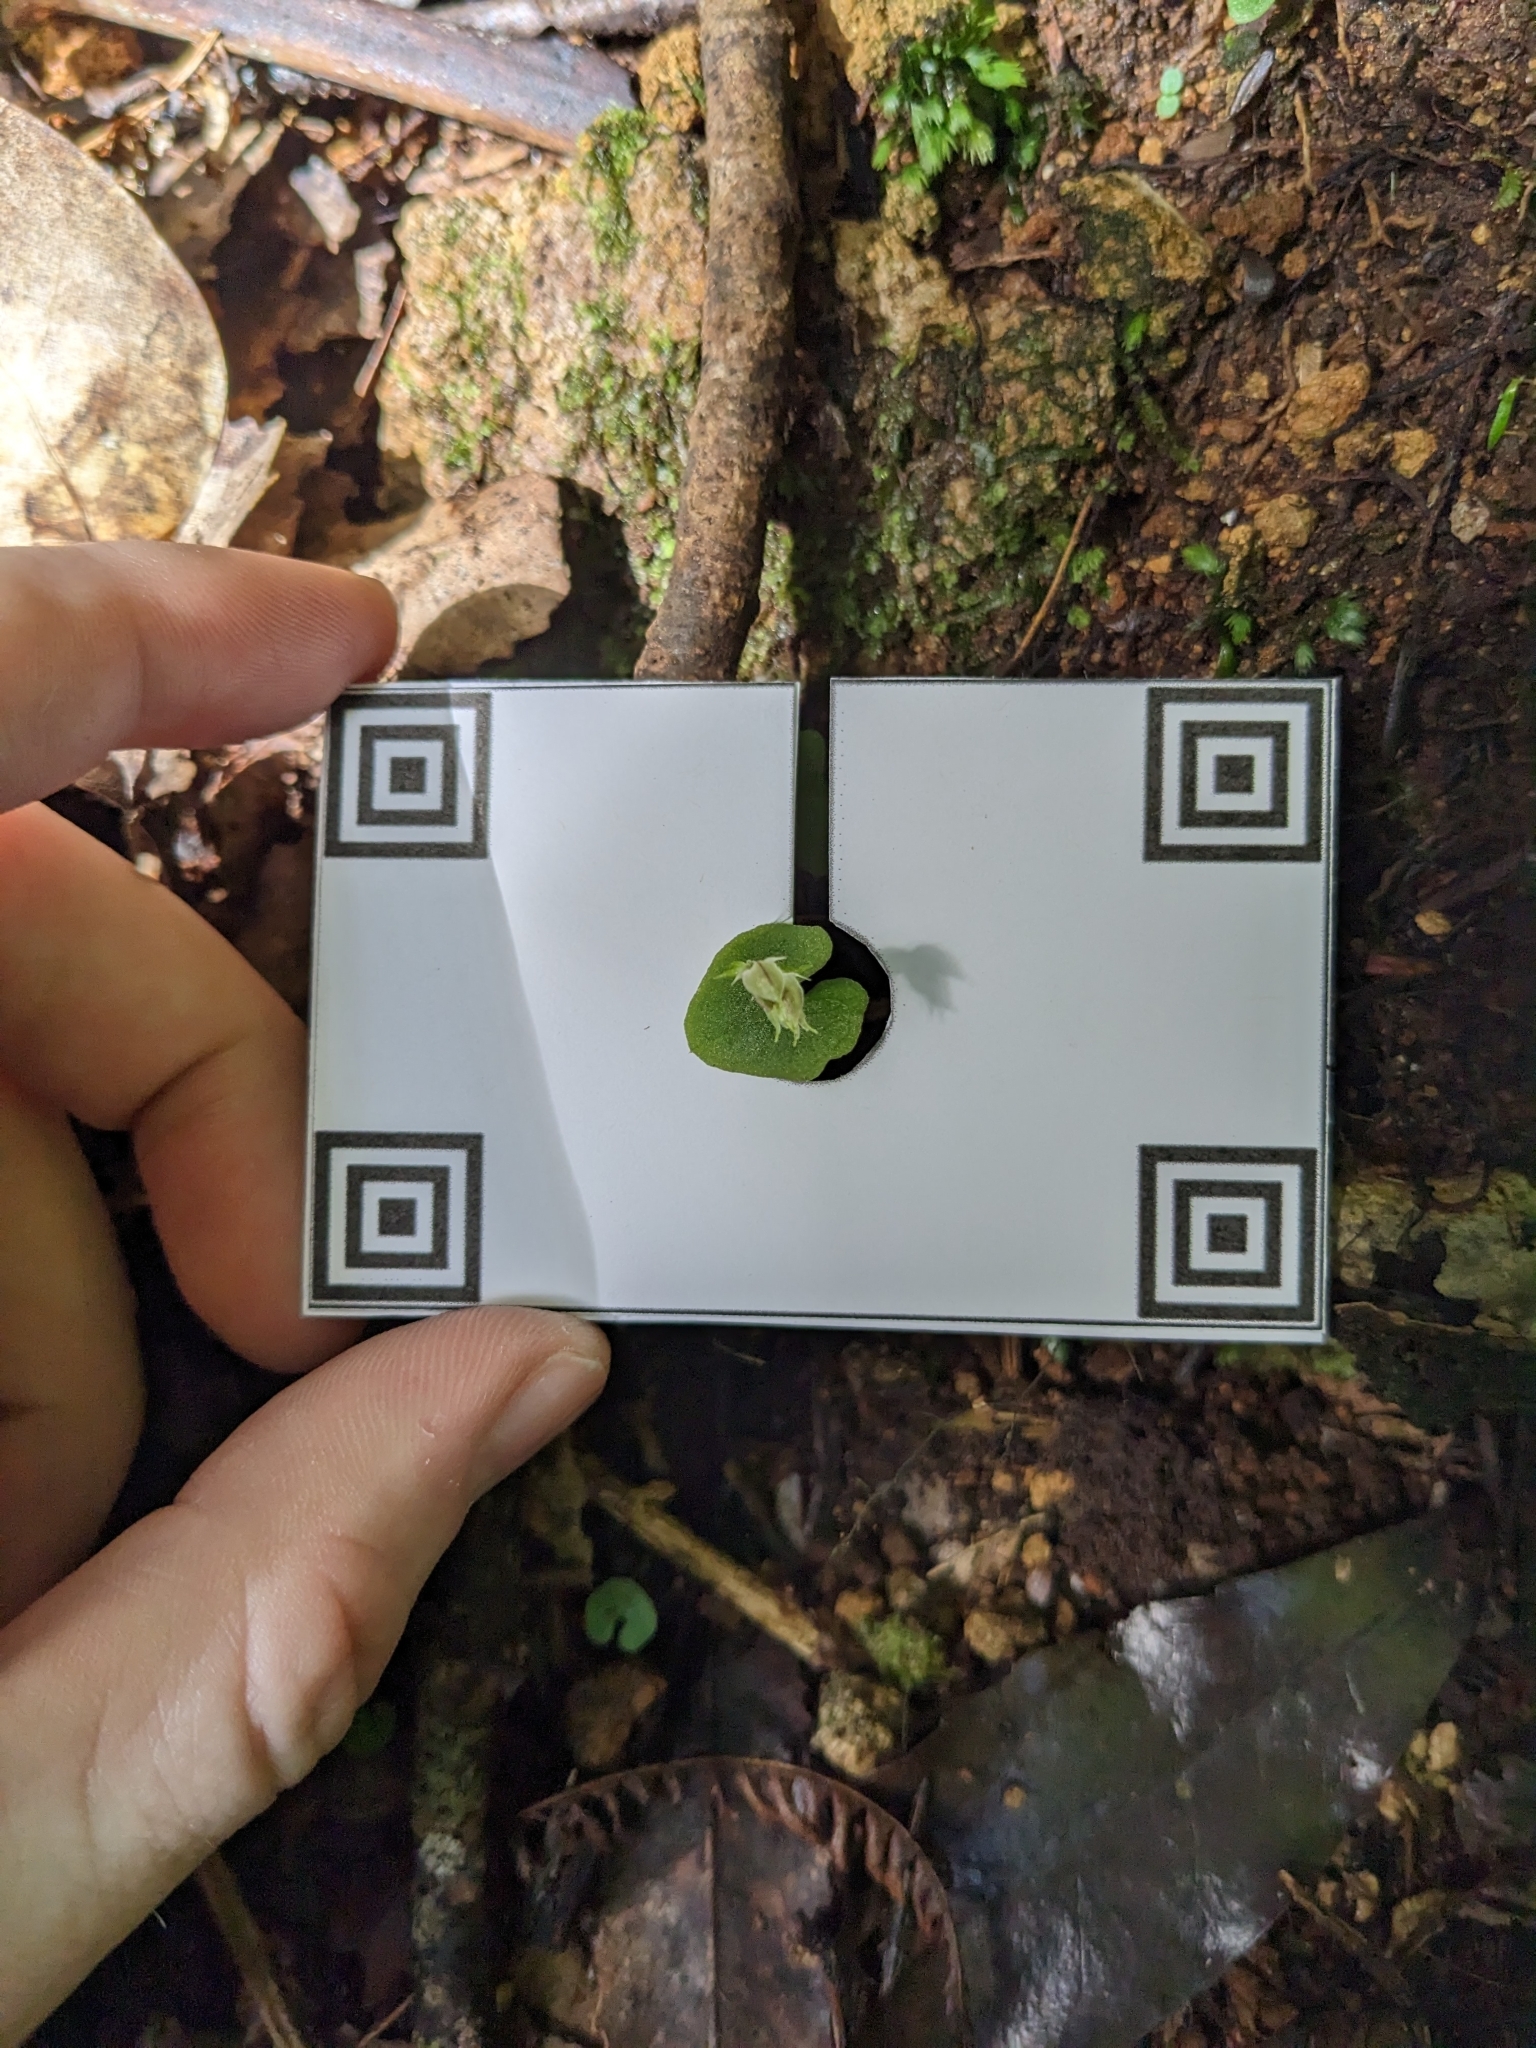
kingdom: Plantae
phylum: Tracheophyta
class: Liliopsida
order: Asparagales
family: Orchidaceae
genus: Acianthus
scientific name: Acianthus sinclairii
